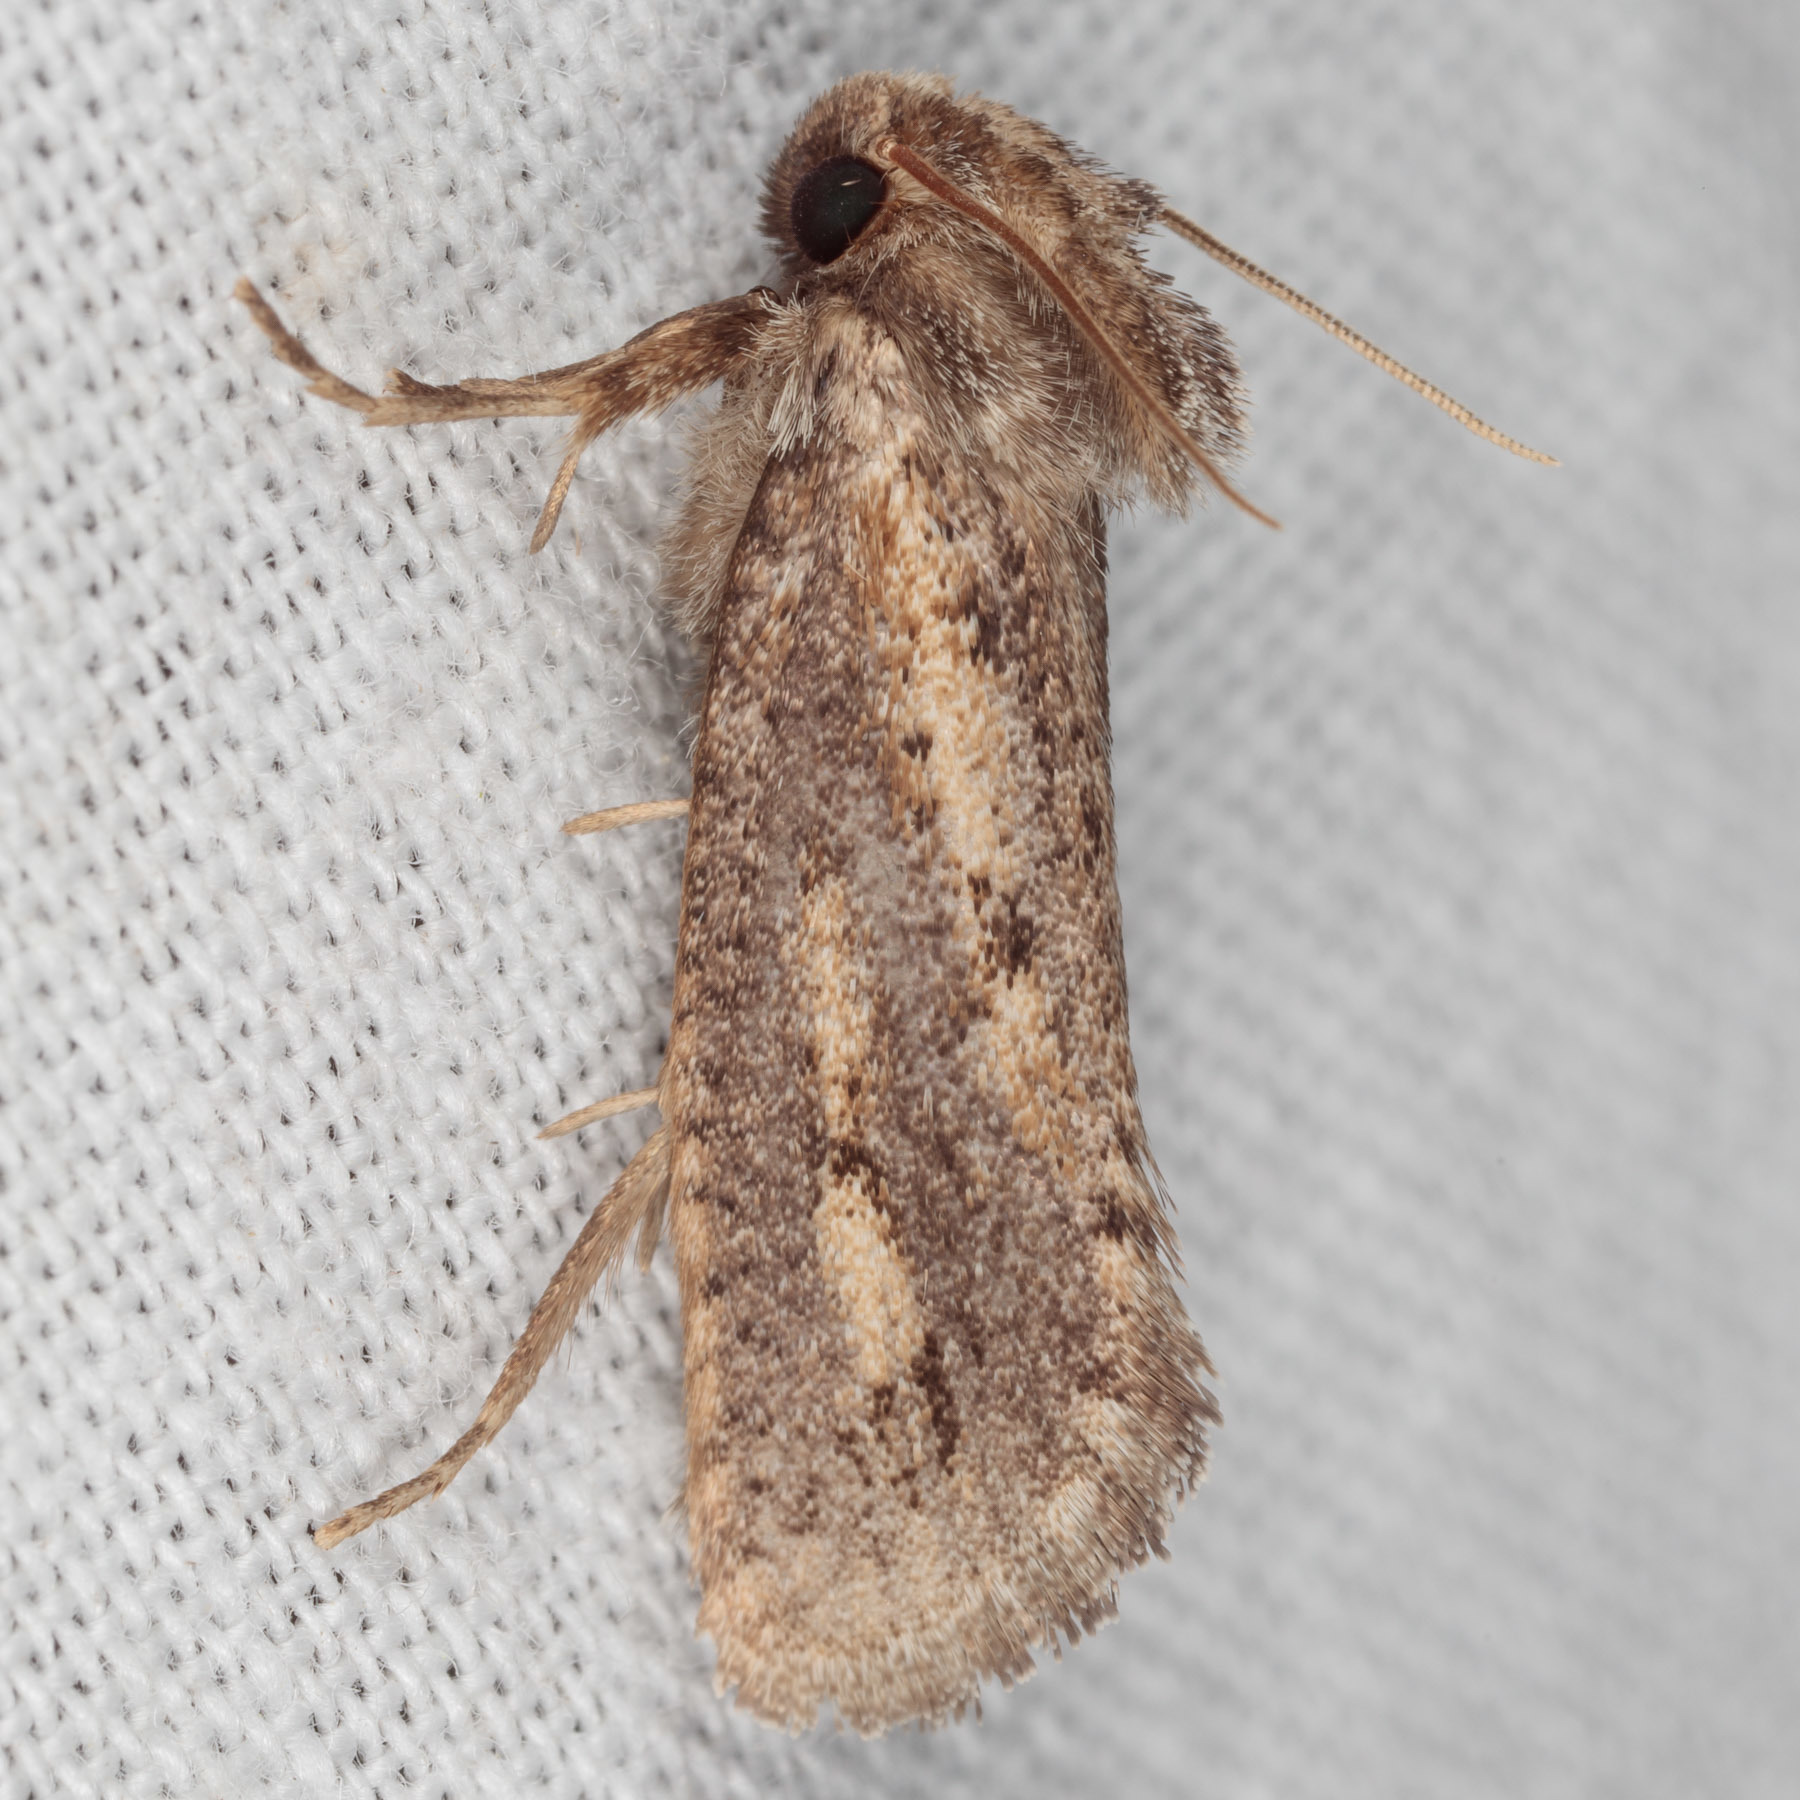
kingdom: Animalia
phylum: Arthropoda
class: Insecta
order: Lepidoptera
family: Tineidae
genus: Acrolophus
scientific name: Acrolophus popeanella
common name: Clemens' grass tubeworm moth
